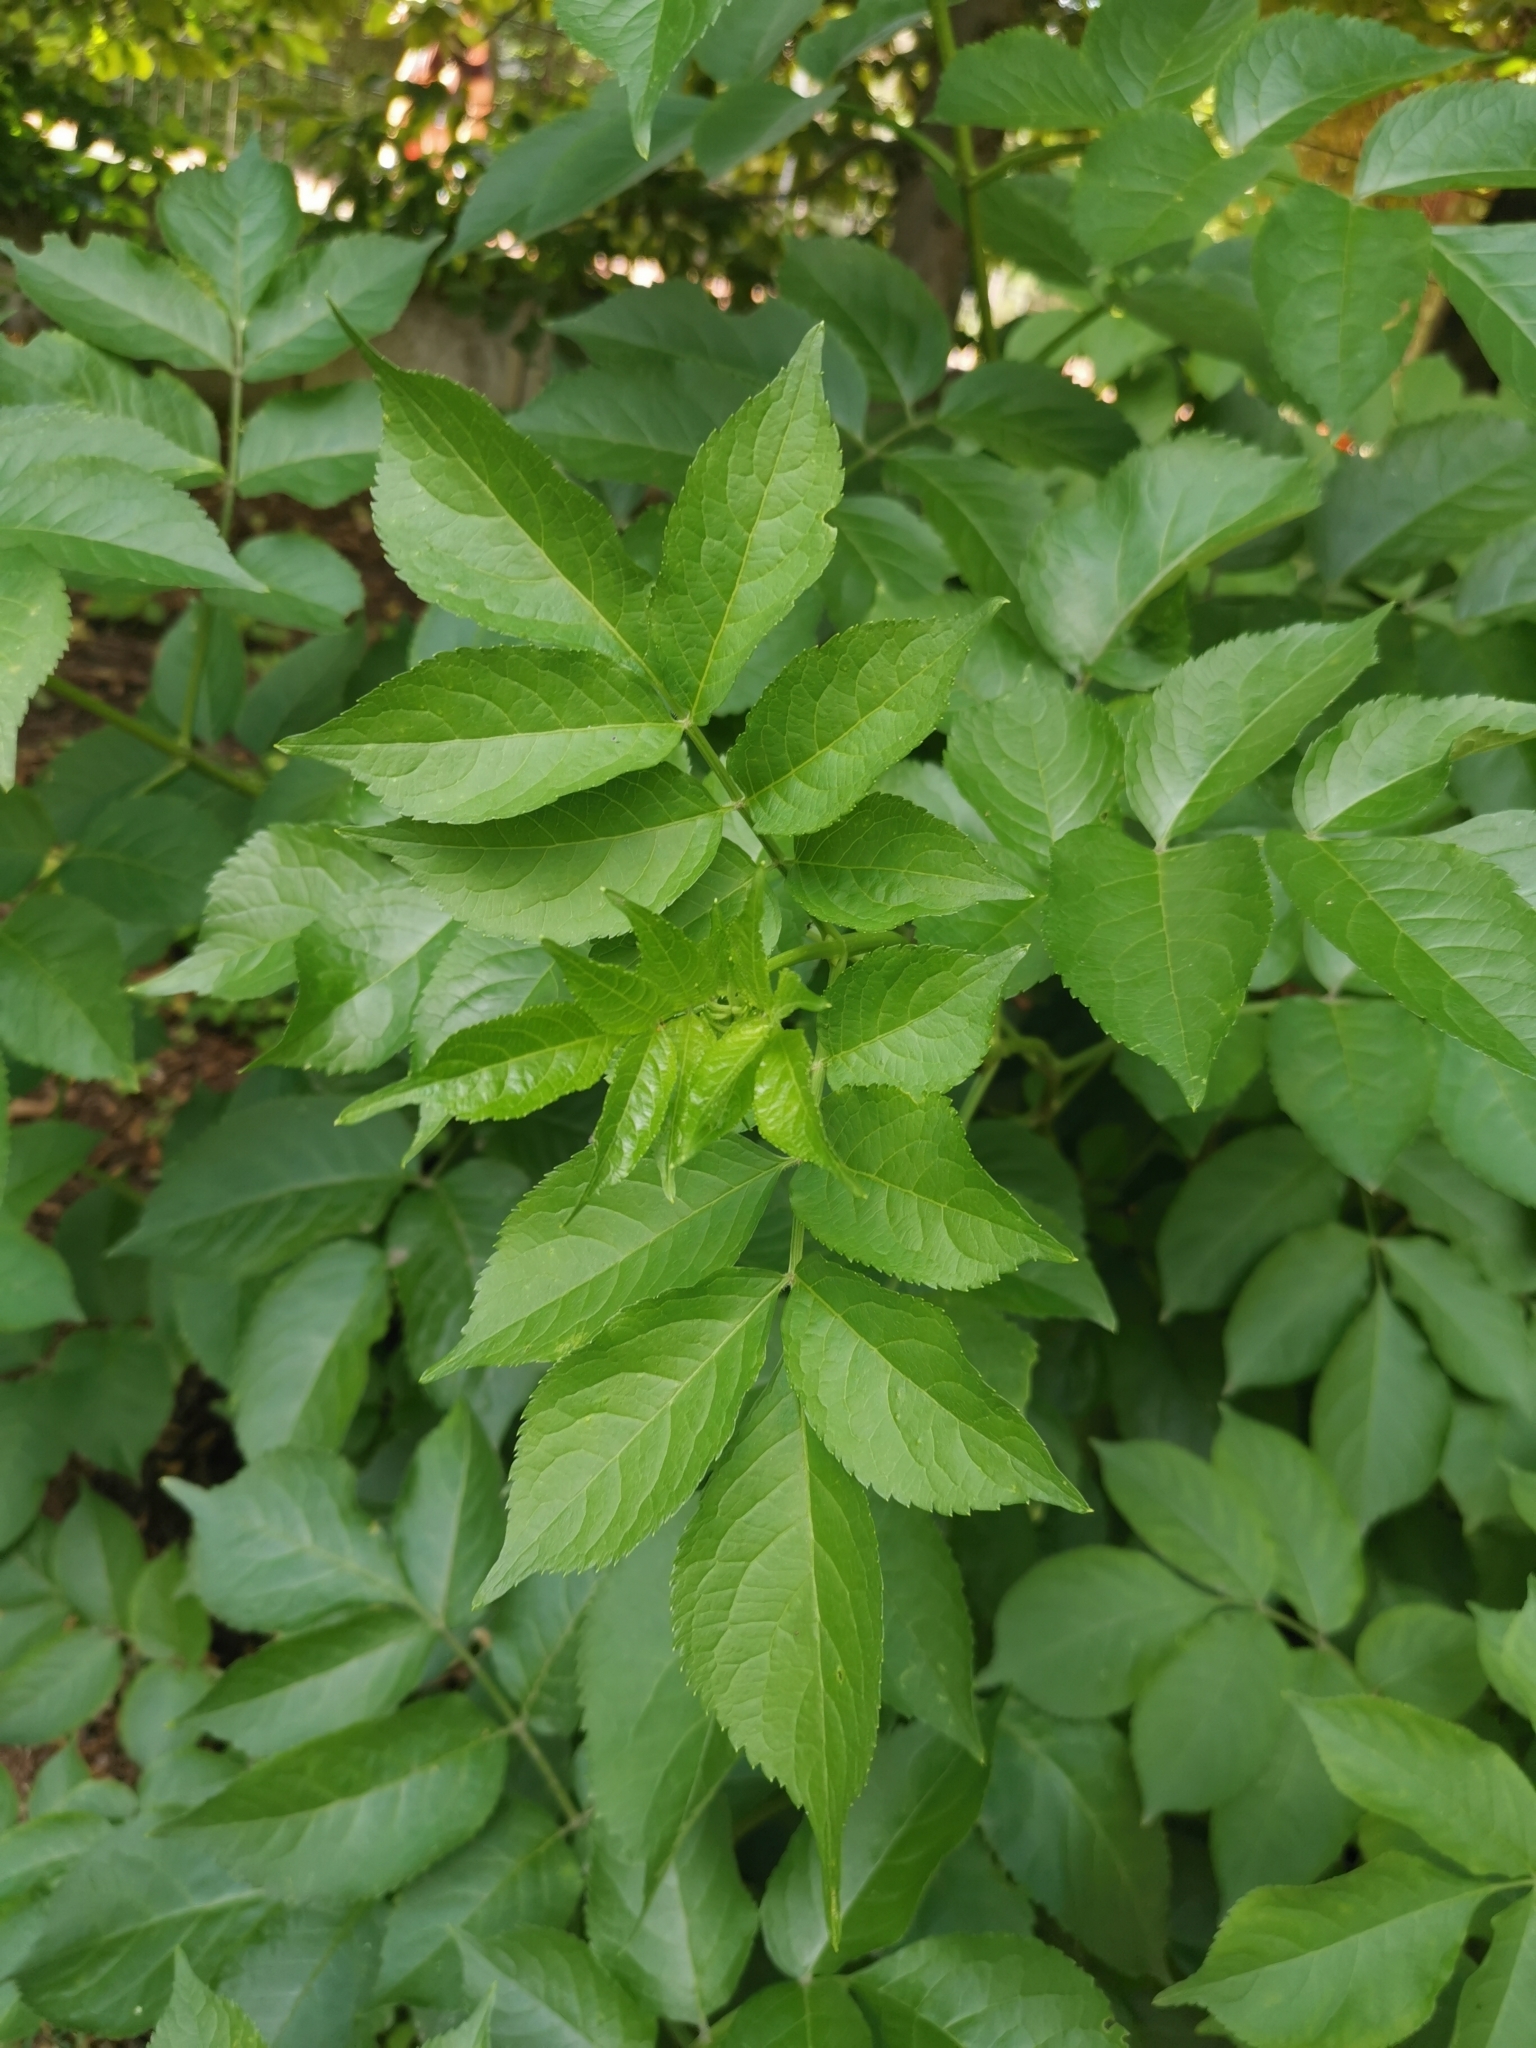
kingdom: Plantae
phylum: Tracheophyta
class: Magnoliopsida
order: Dipsacales
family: Viburnaceae
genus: Sambucus
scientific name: Sambucus nigra
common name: Elder
